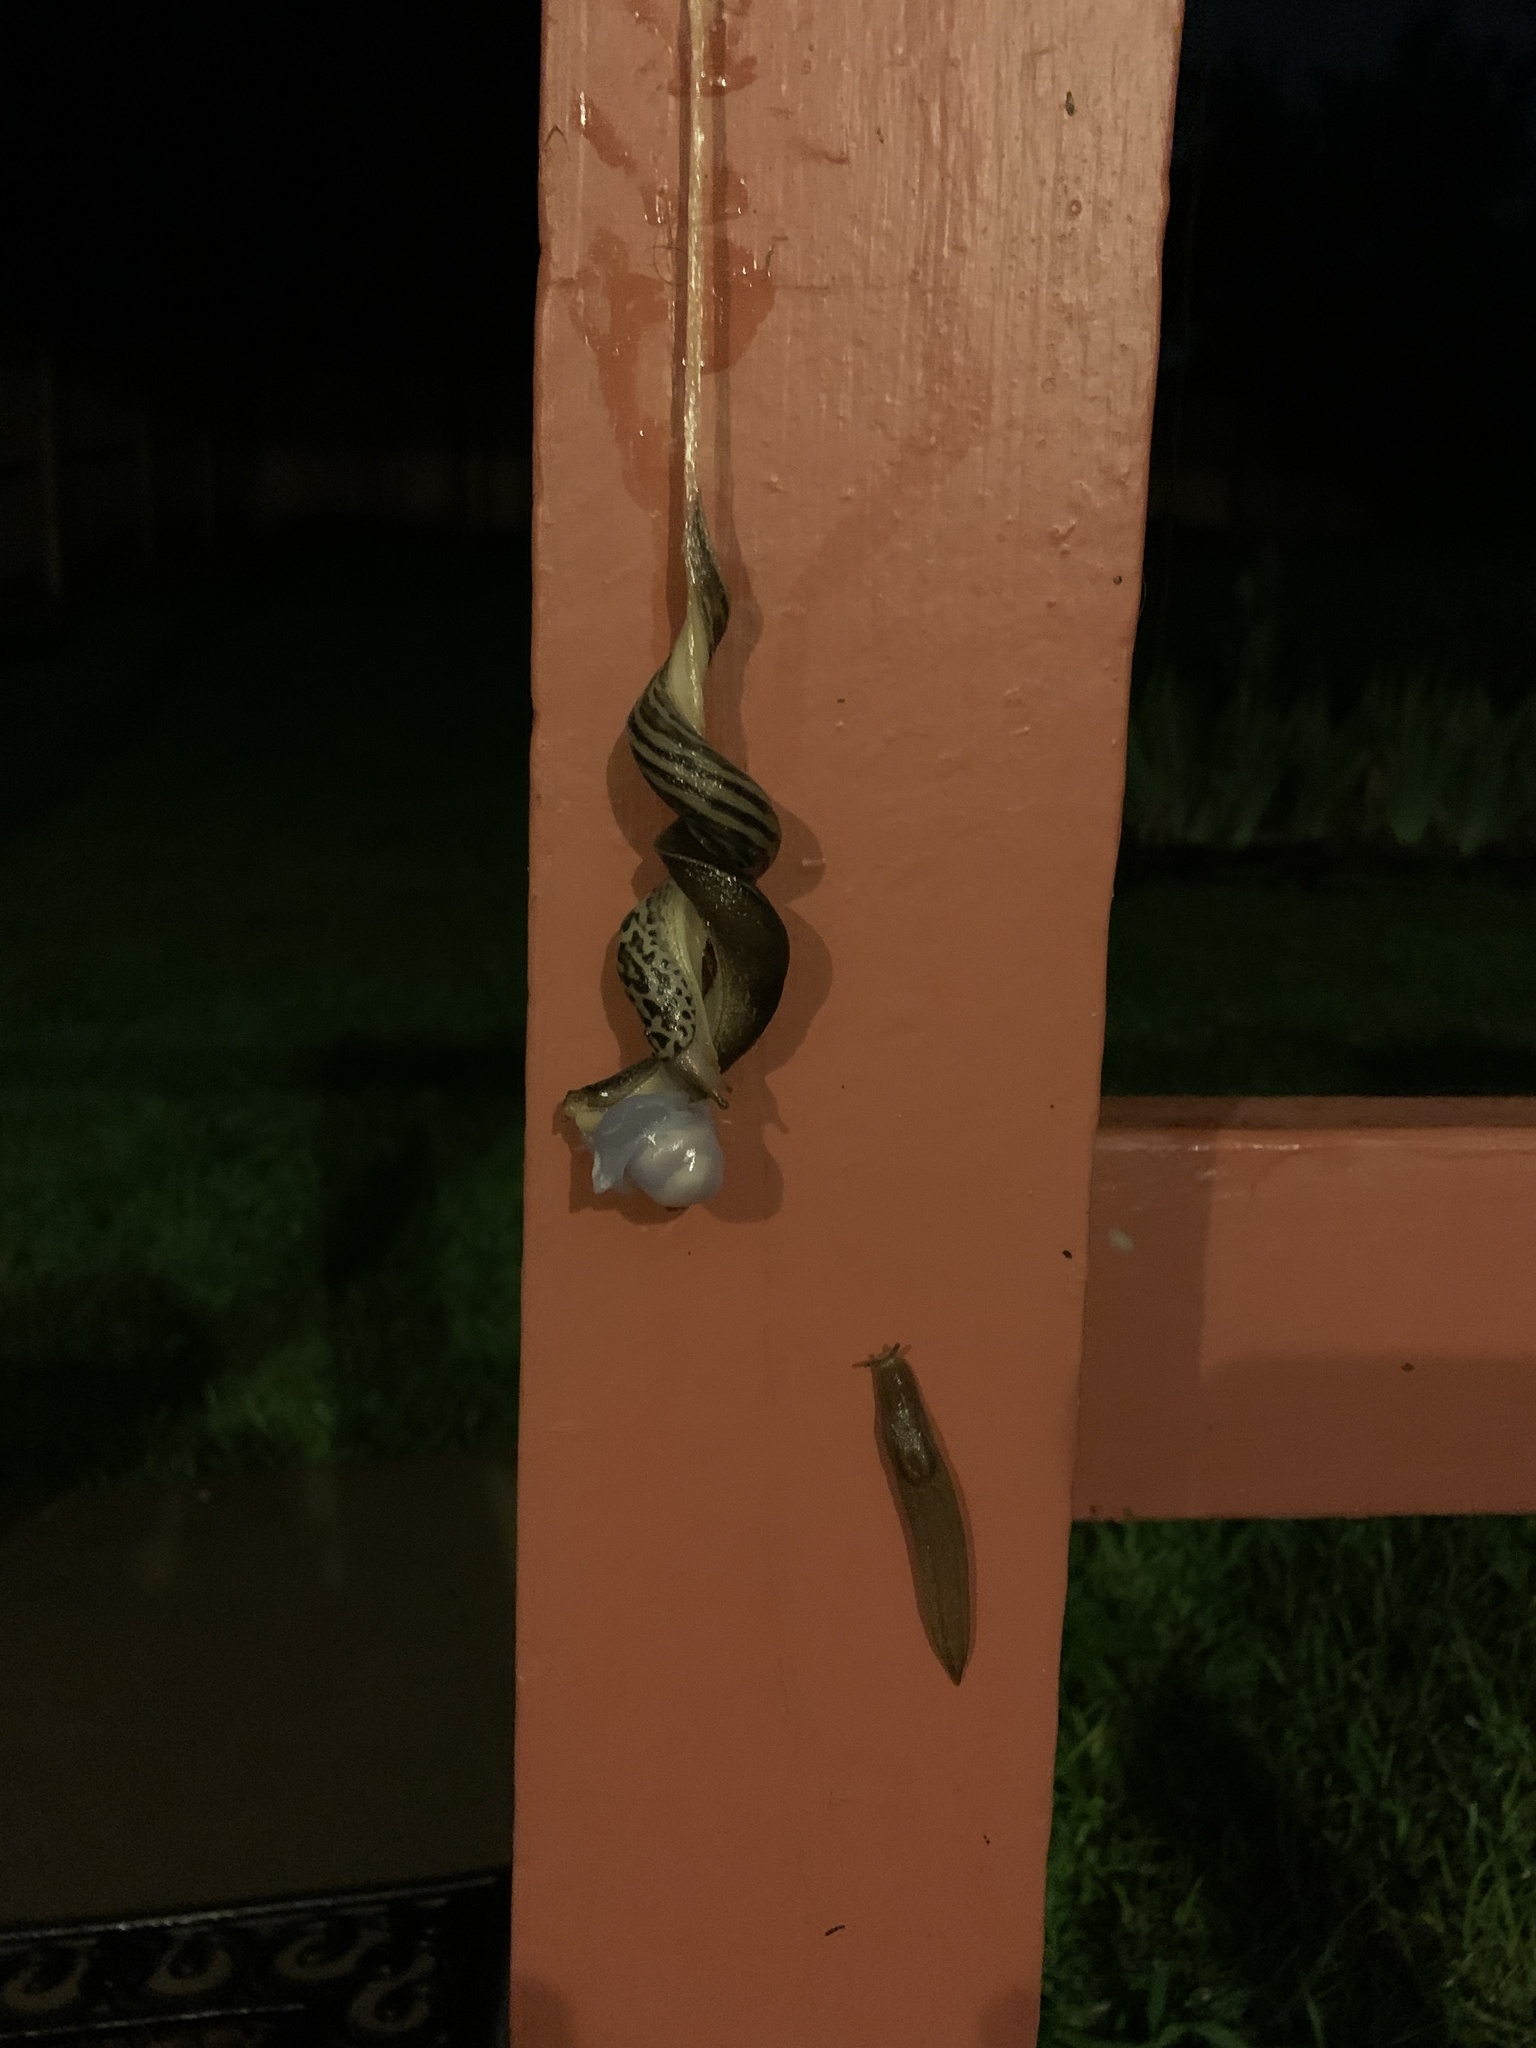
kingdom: Animalia
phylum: Mollusca
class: Gastropoda
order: Stylommatophora
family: Limacidae
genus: Limax
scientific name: Limax maximus
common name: Great grey slug
